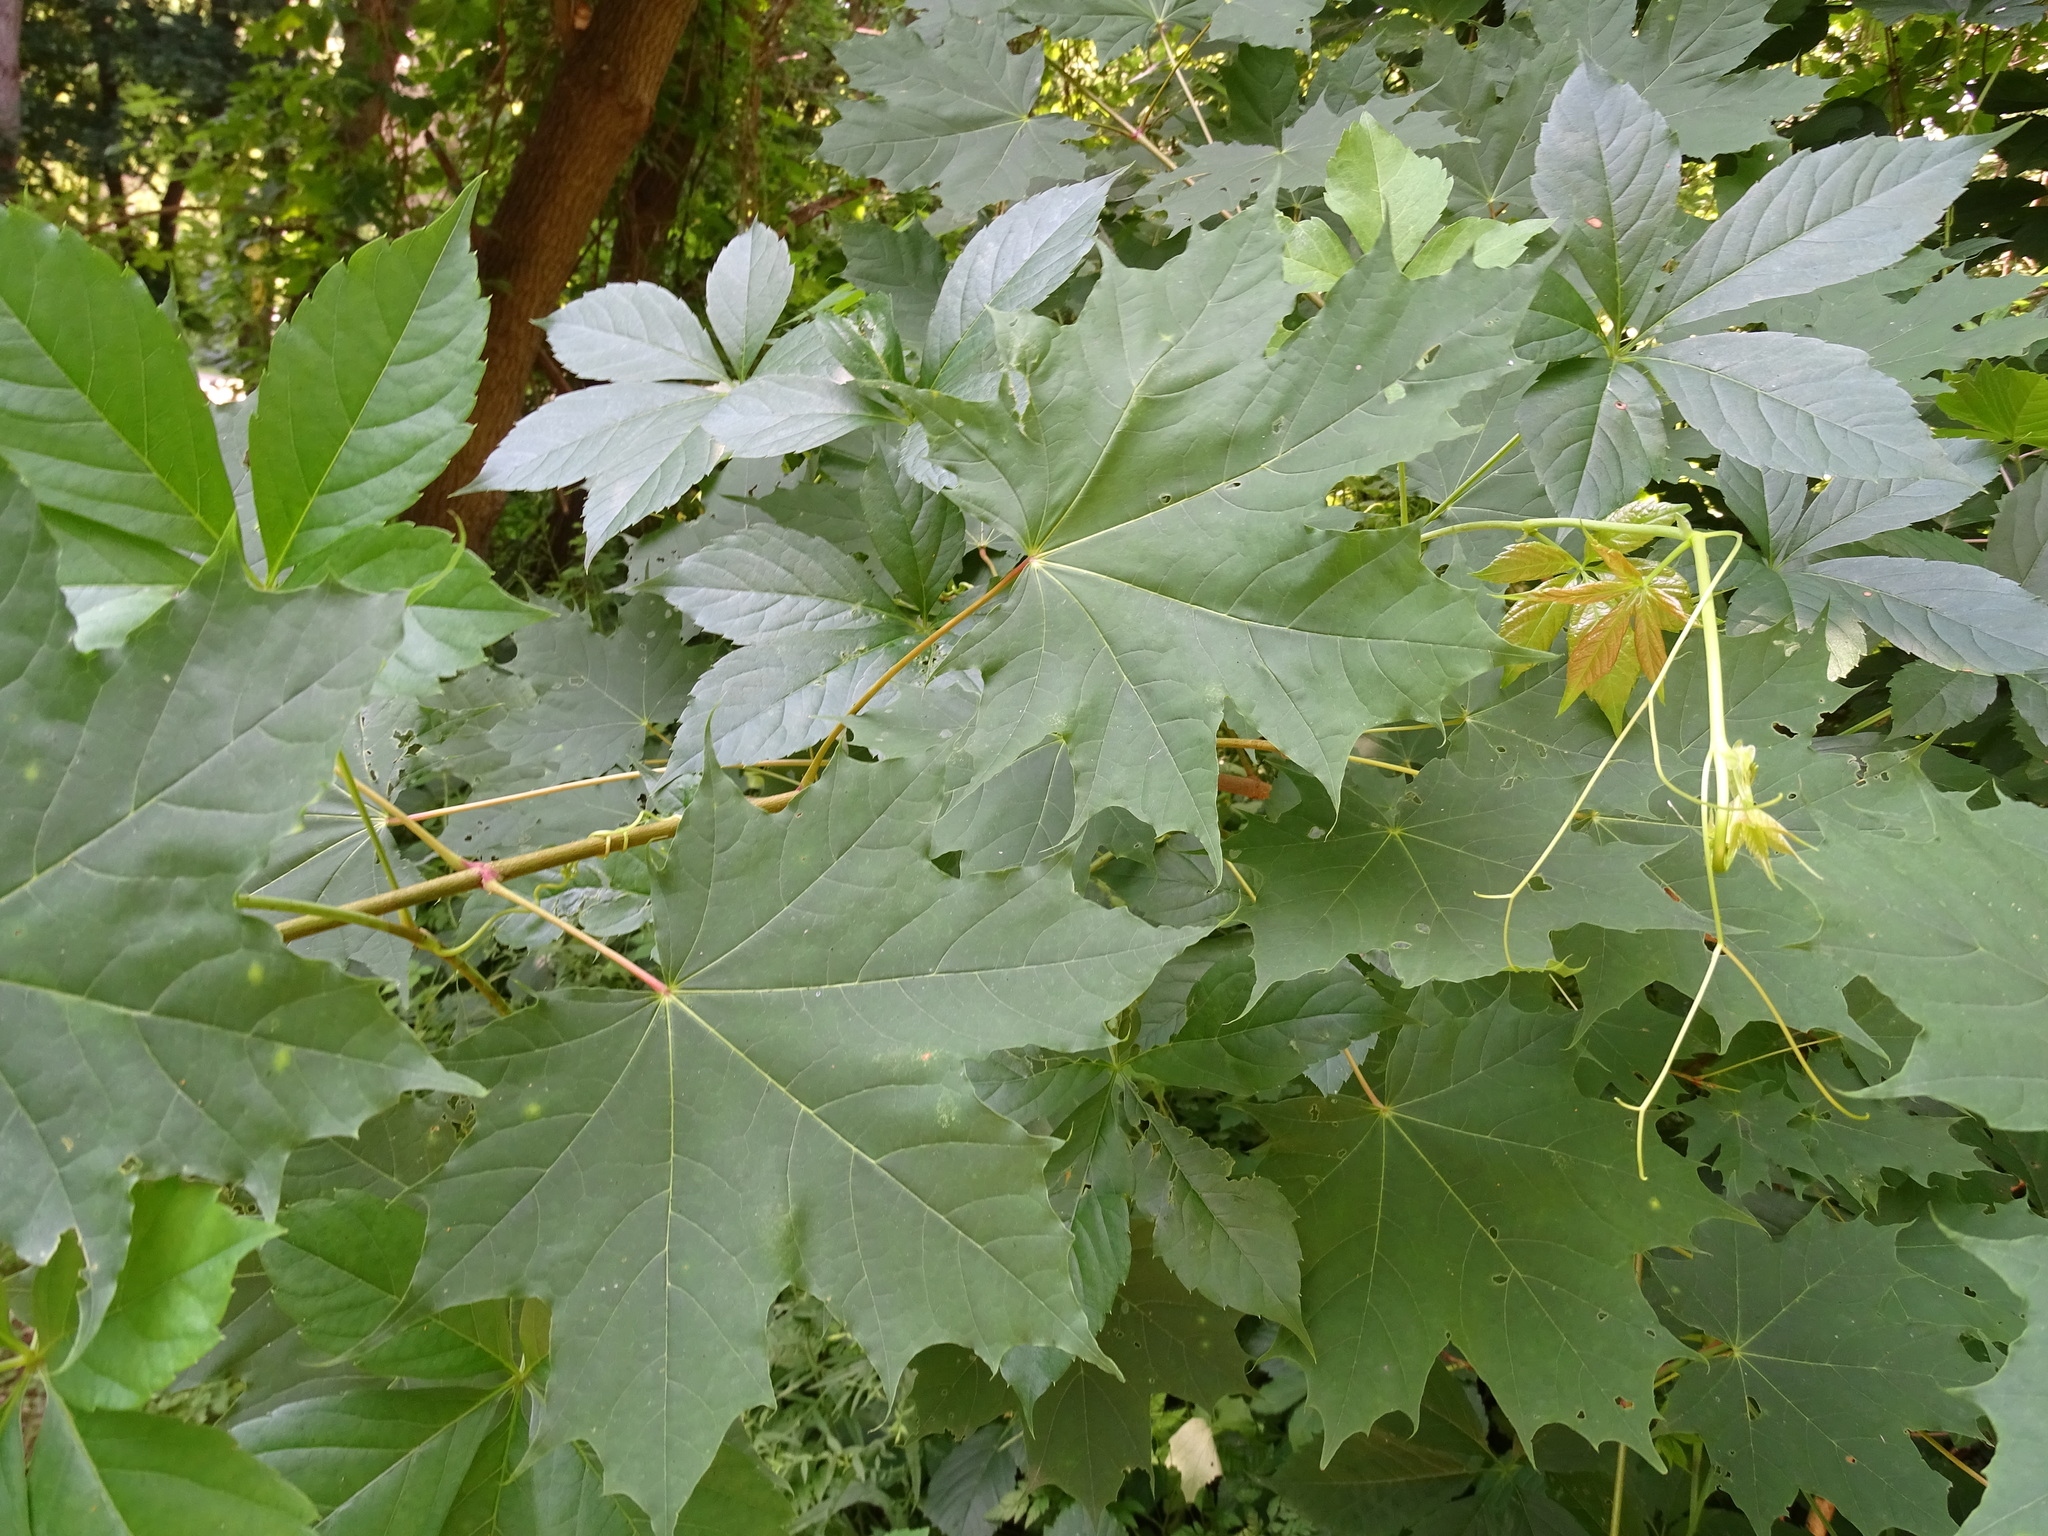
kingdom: Plantae
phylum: Tracheophyta
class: Magnoliopsida
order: Sapindales
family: Sapindaceae
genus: Acer
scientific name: Acer platanoides
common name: Norway maple
